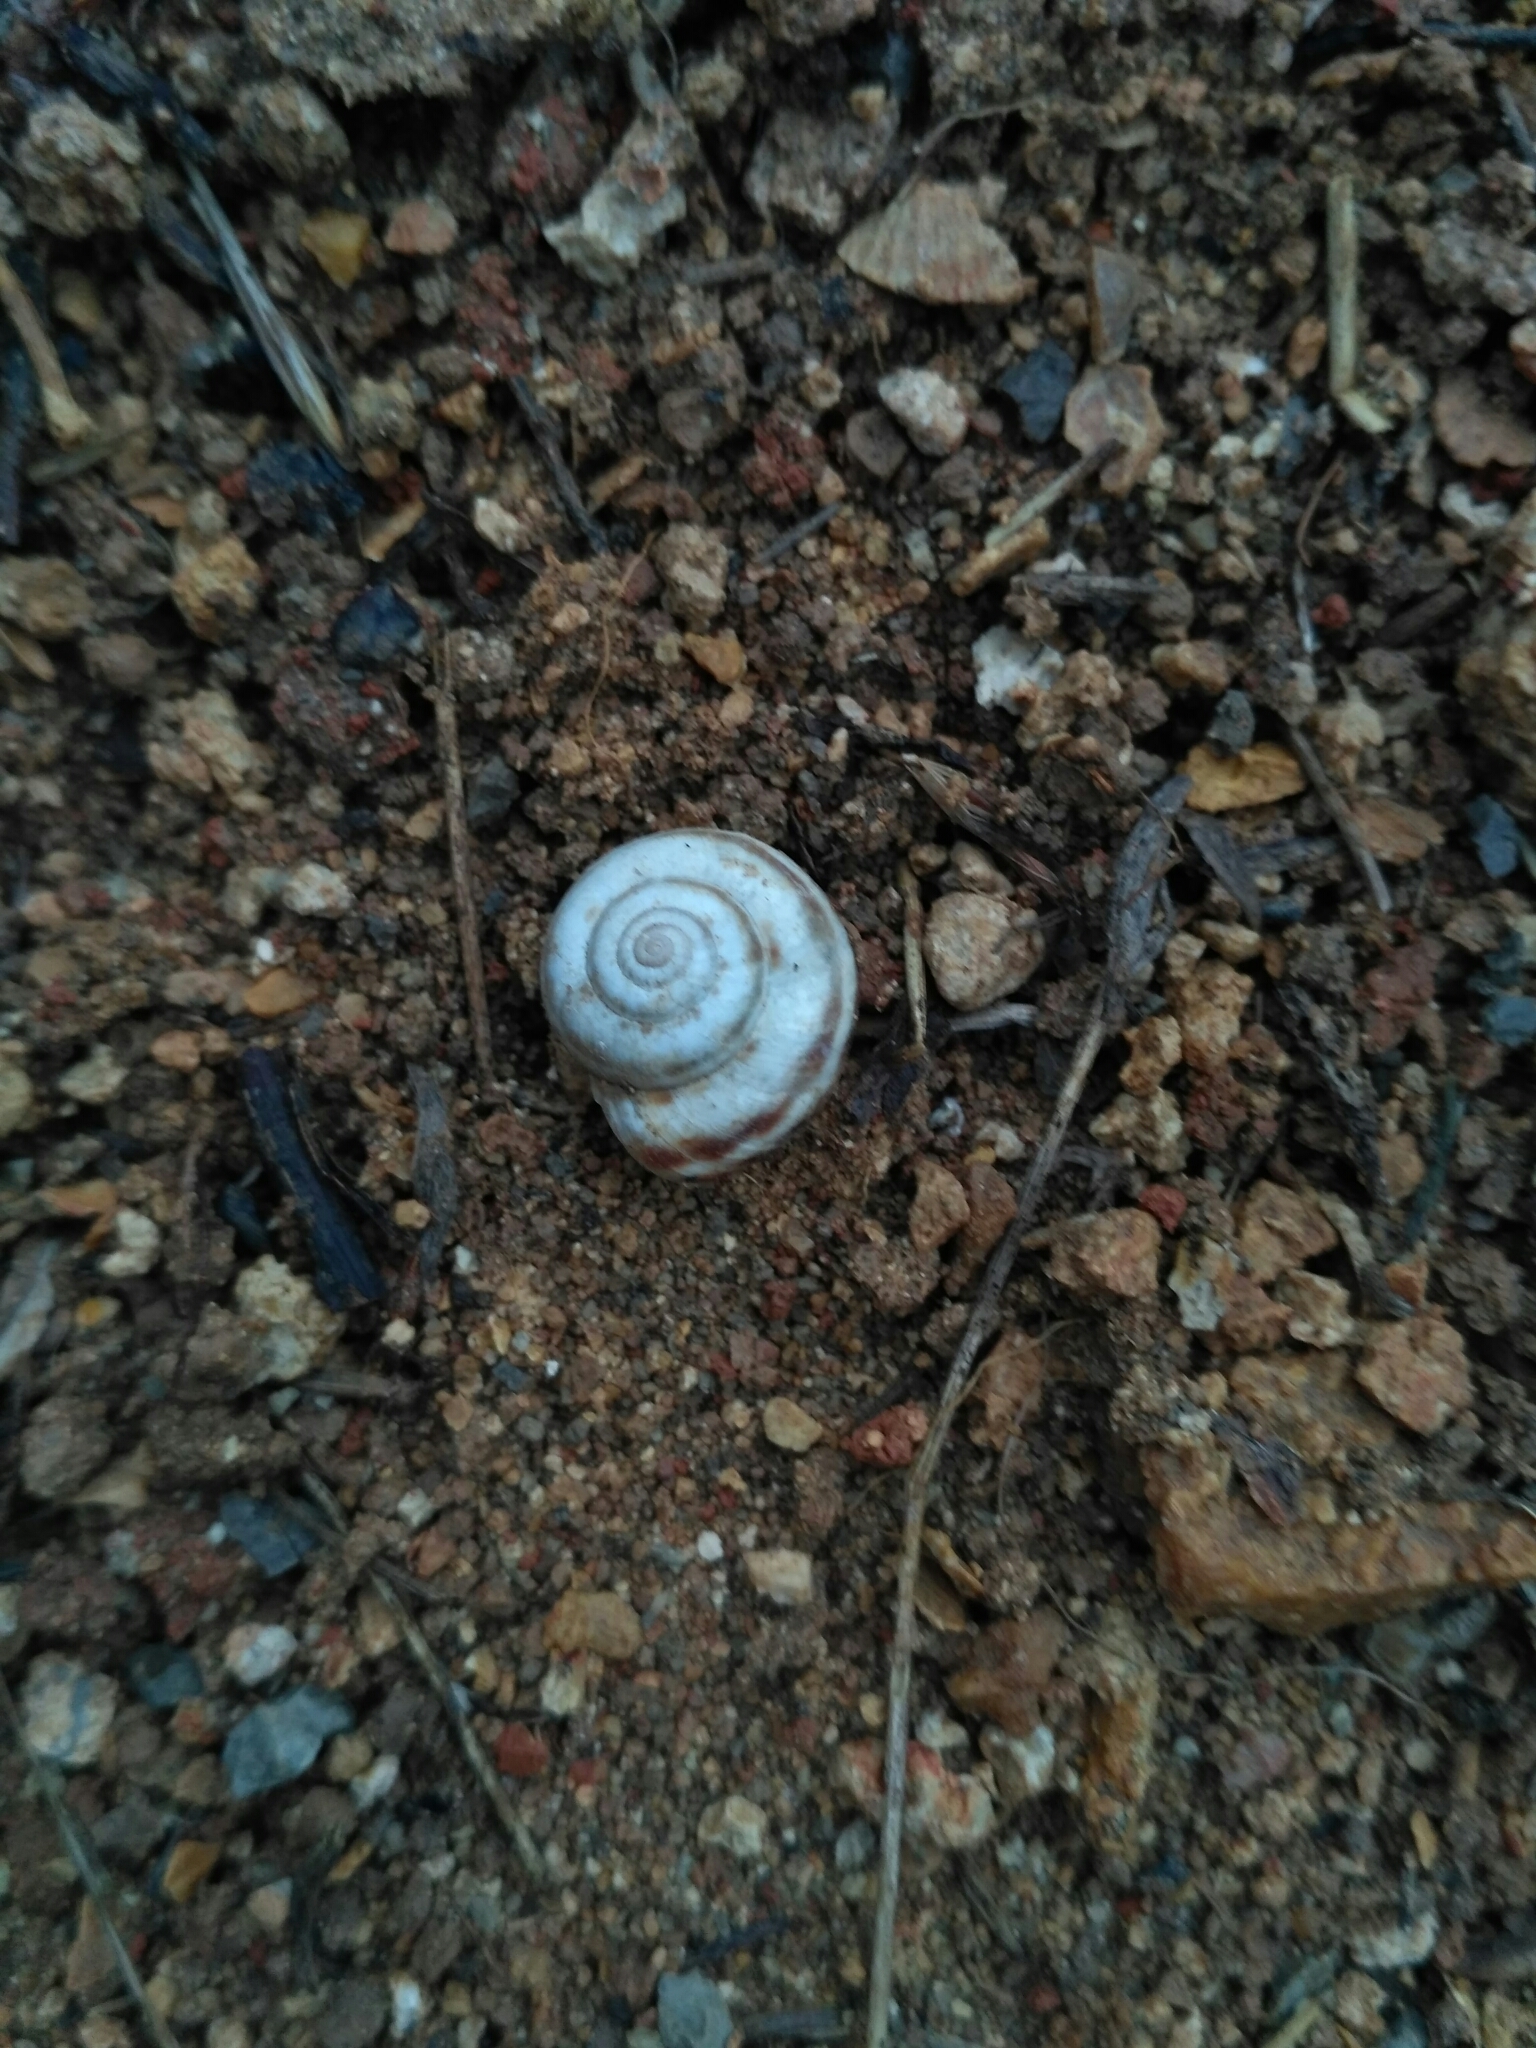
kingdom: Animalia
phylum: Mollusca
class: Gastropoda
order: Stylommatophora
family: Geomitridae
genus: Xeropicta
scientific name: Xeropicta derbentina
